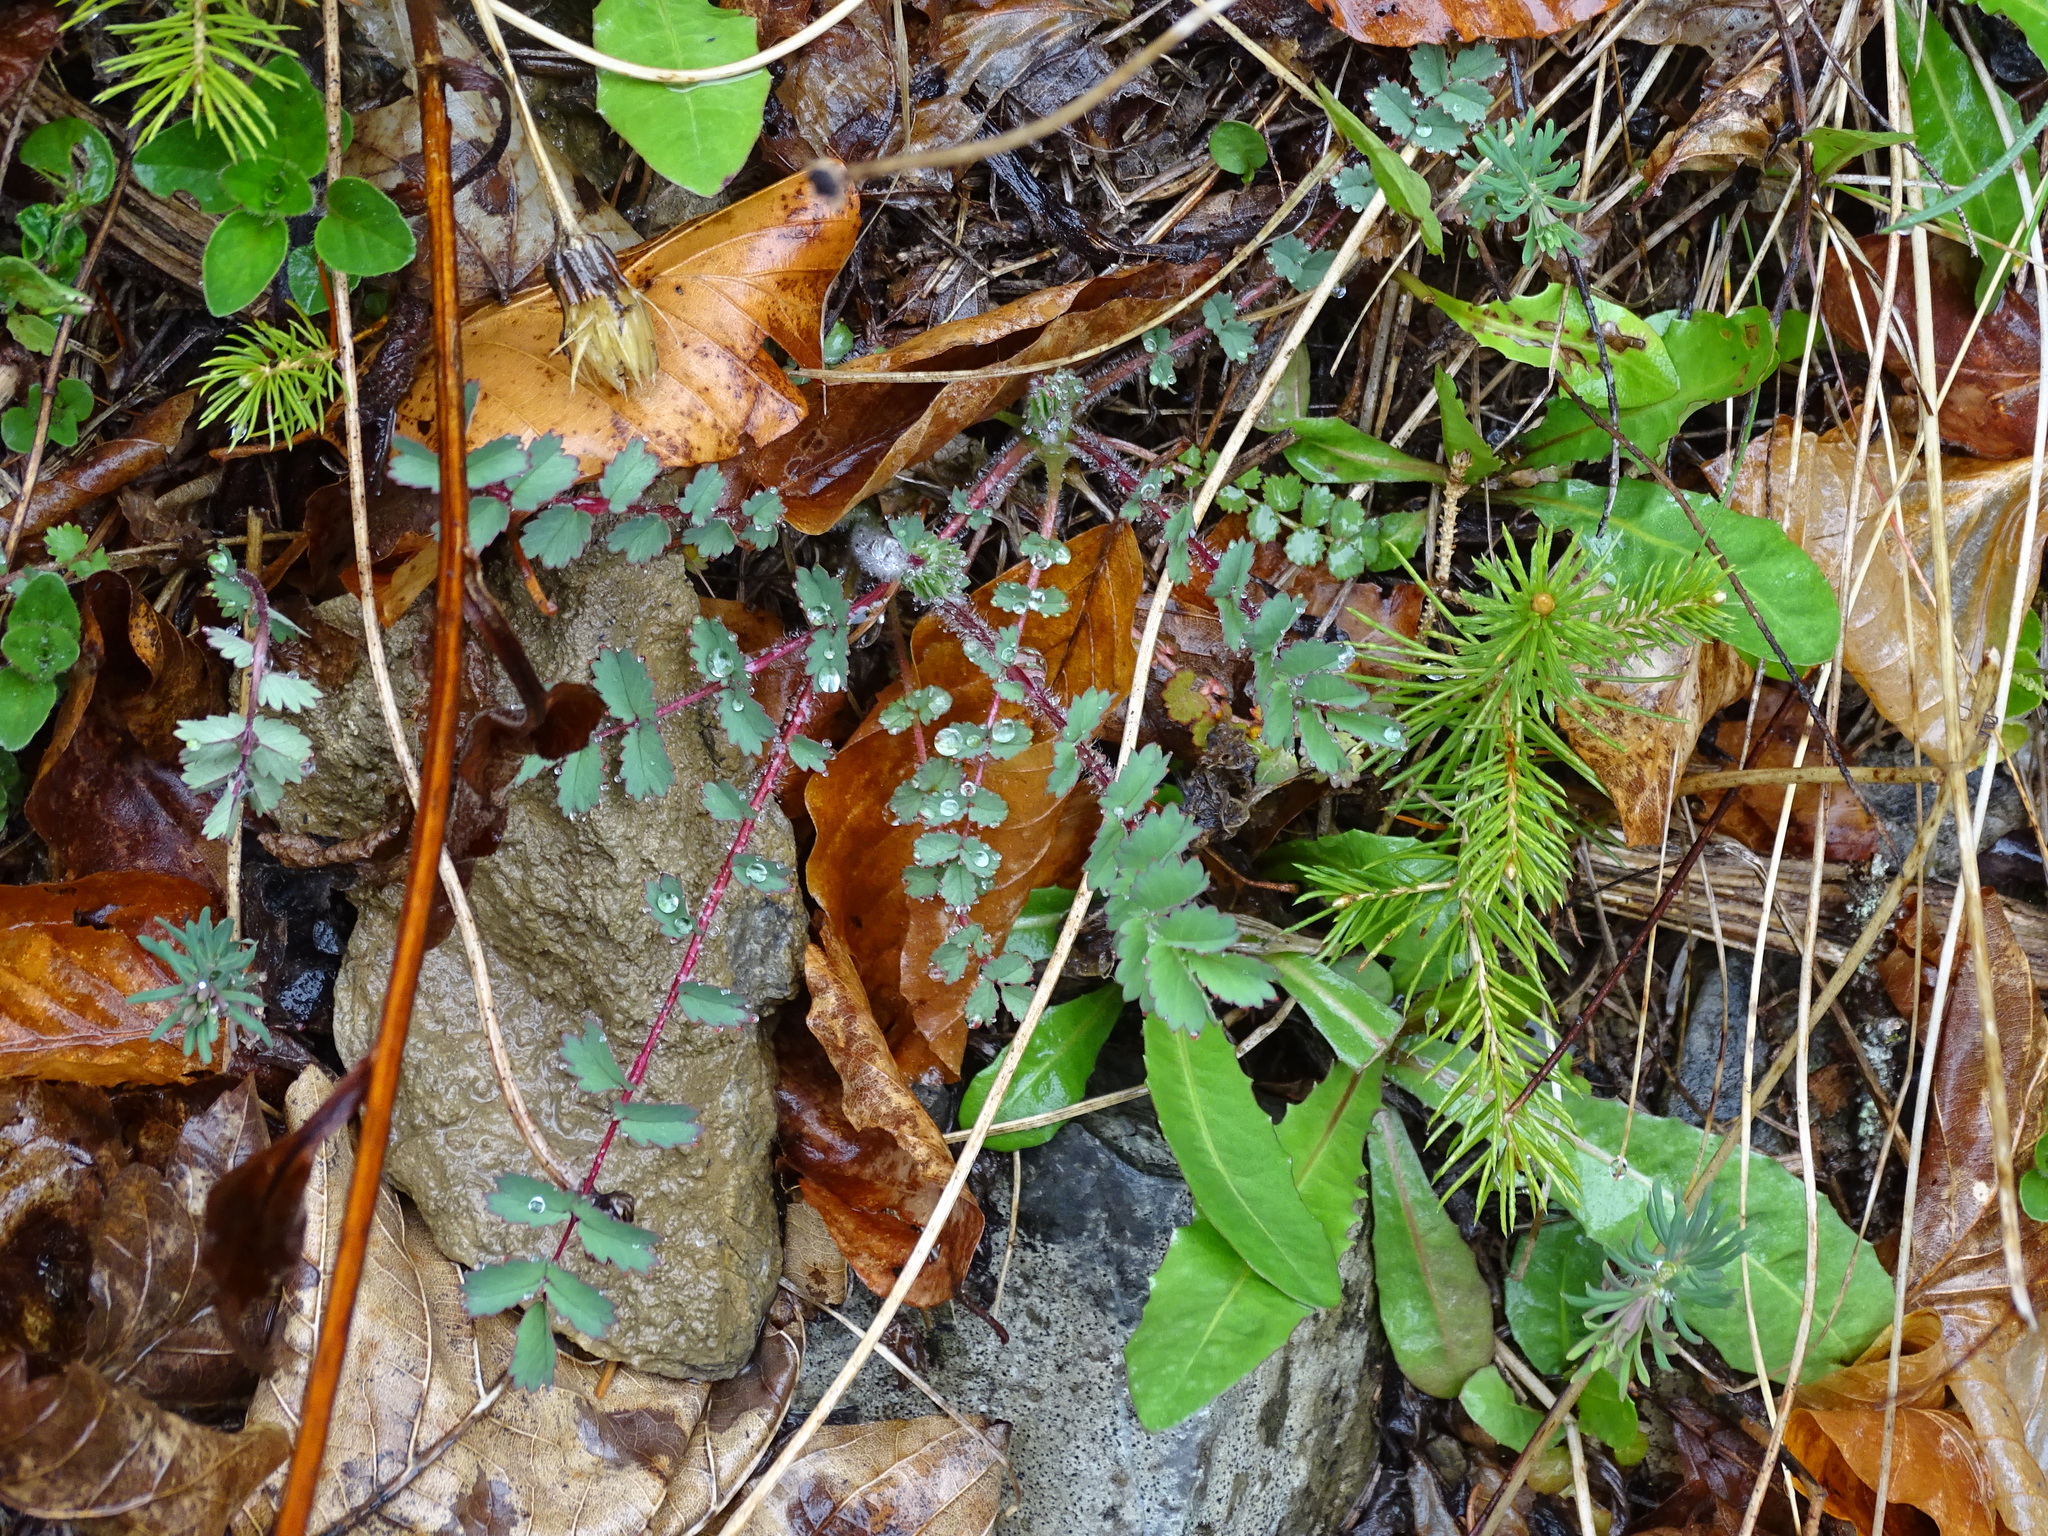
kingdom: Plantae
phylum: Tracheophyta
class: Magnoliopsida
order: Rosales
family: Rosaceae
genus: Poterium
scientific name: Poterium sanguisorba
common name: Salad burnet
